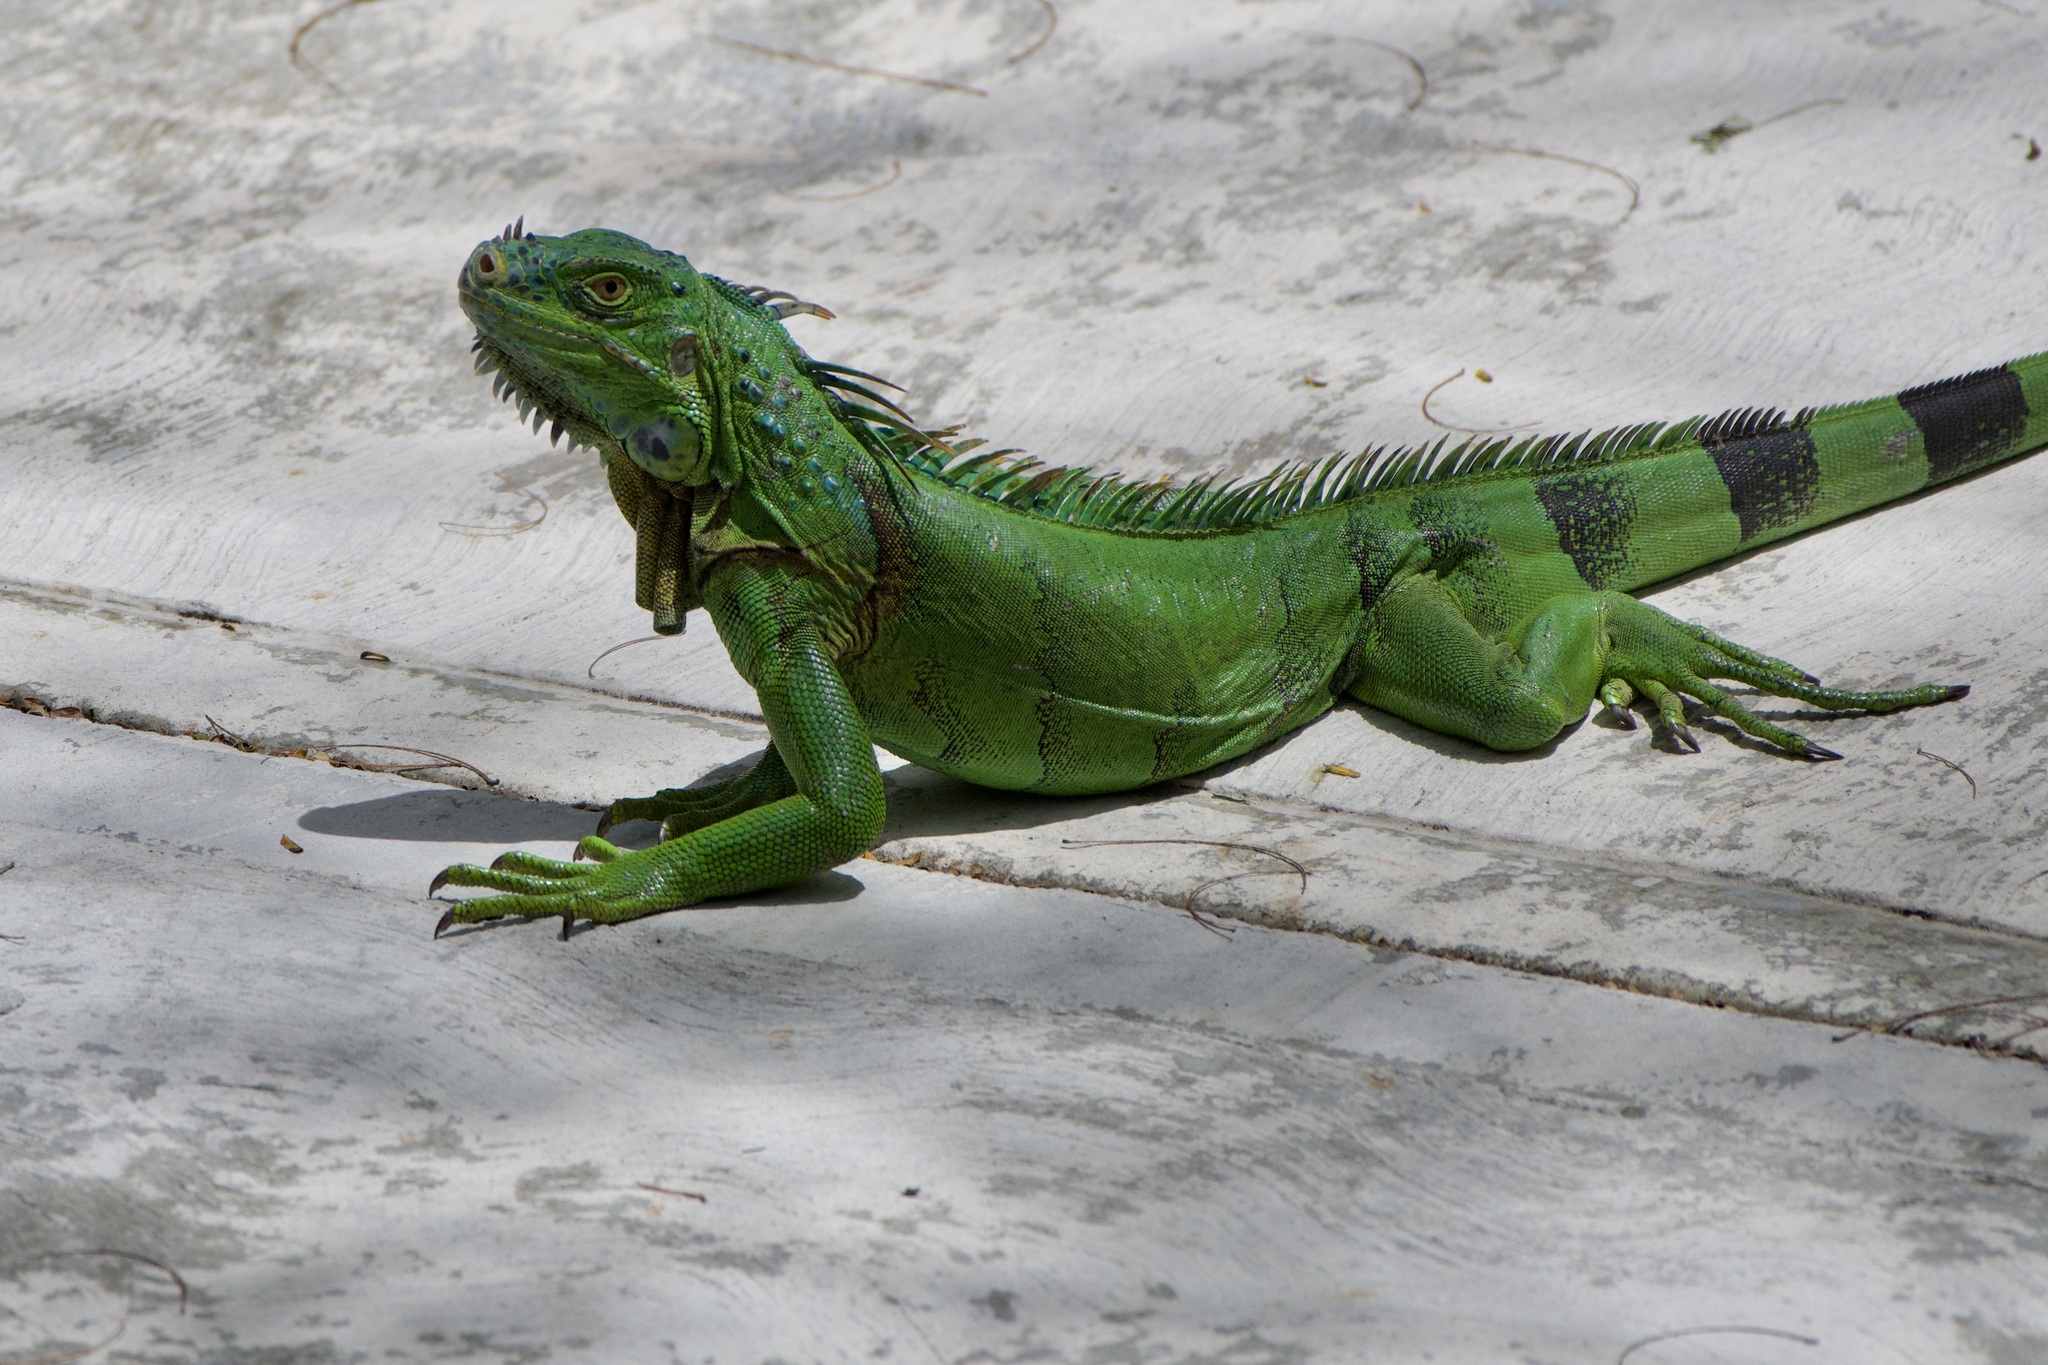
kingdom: Animalia
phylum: Chordata
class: Squamata
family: Iguanidae
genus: Iguana
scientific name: Iguana iguana
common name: Green iguana
